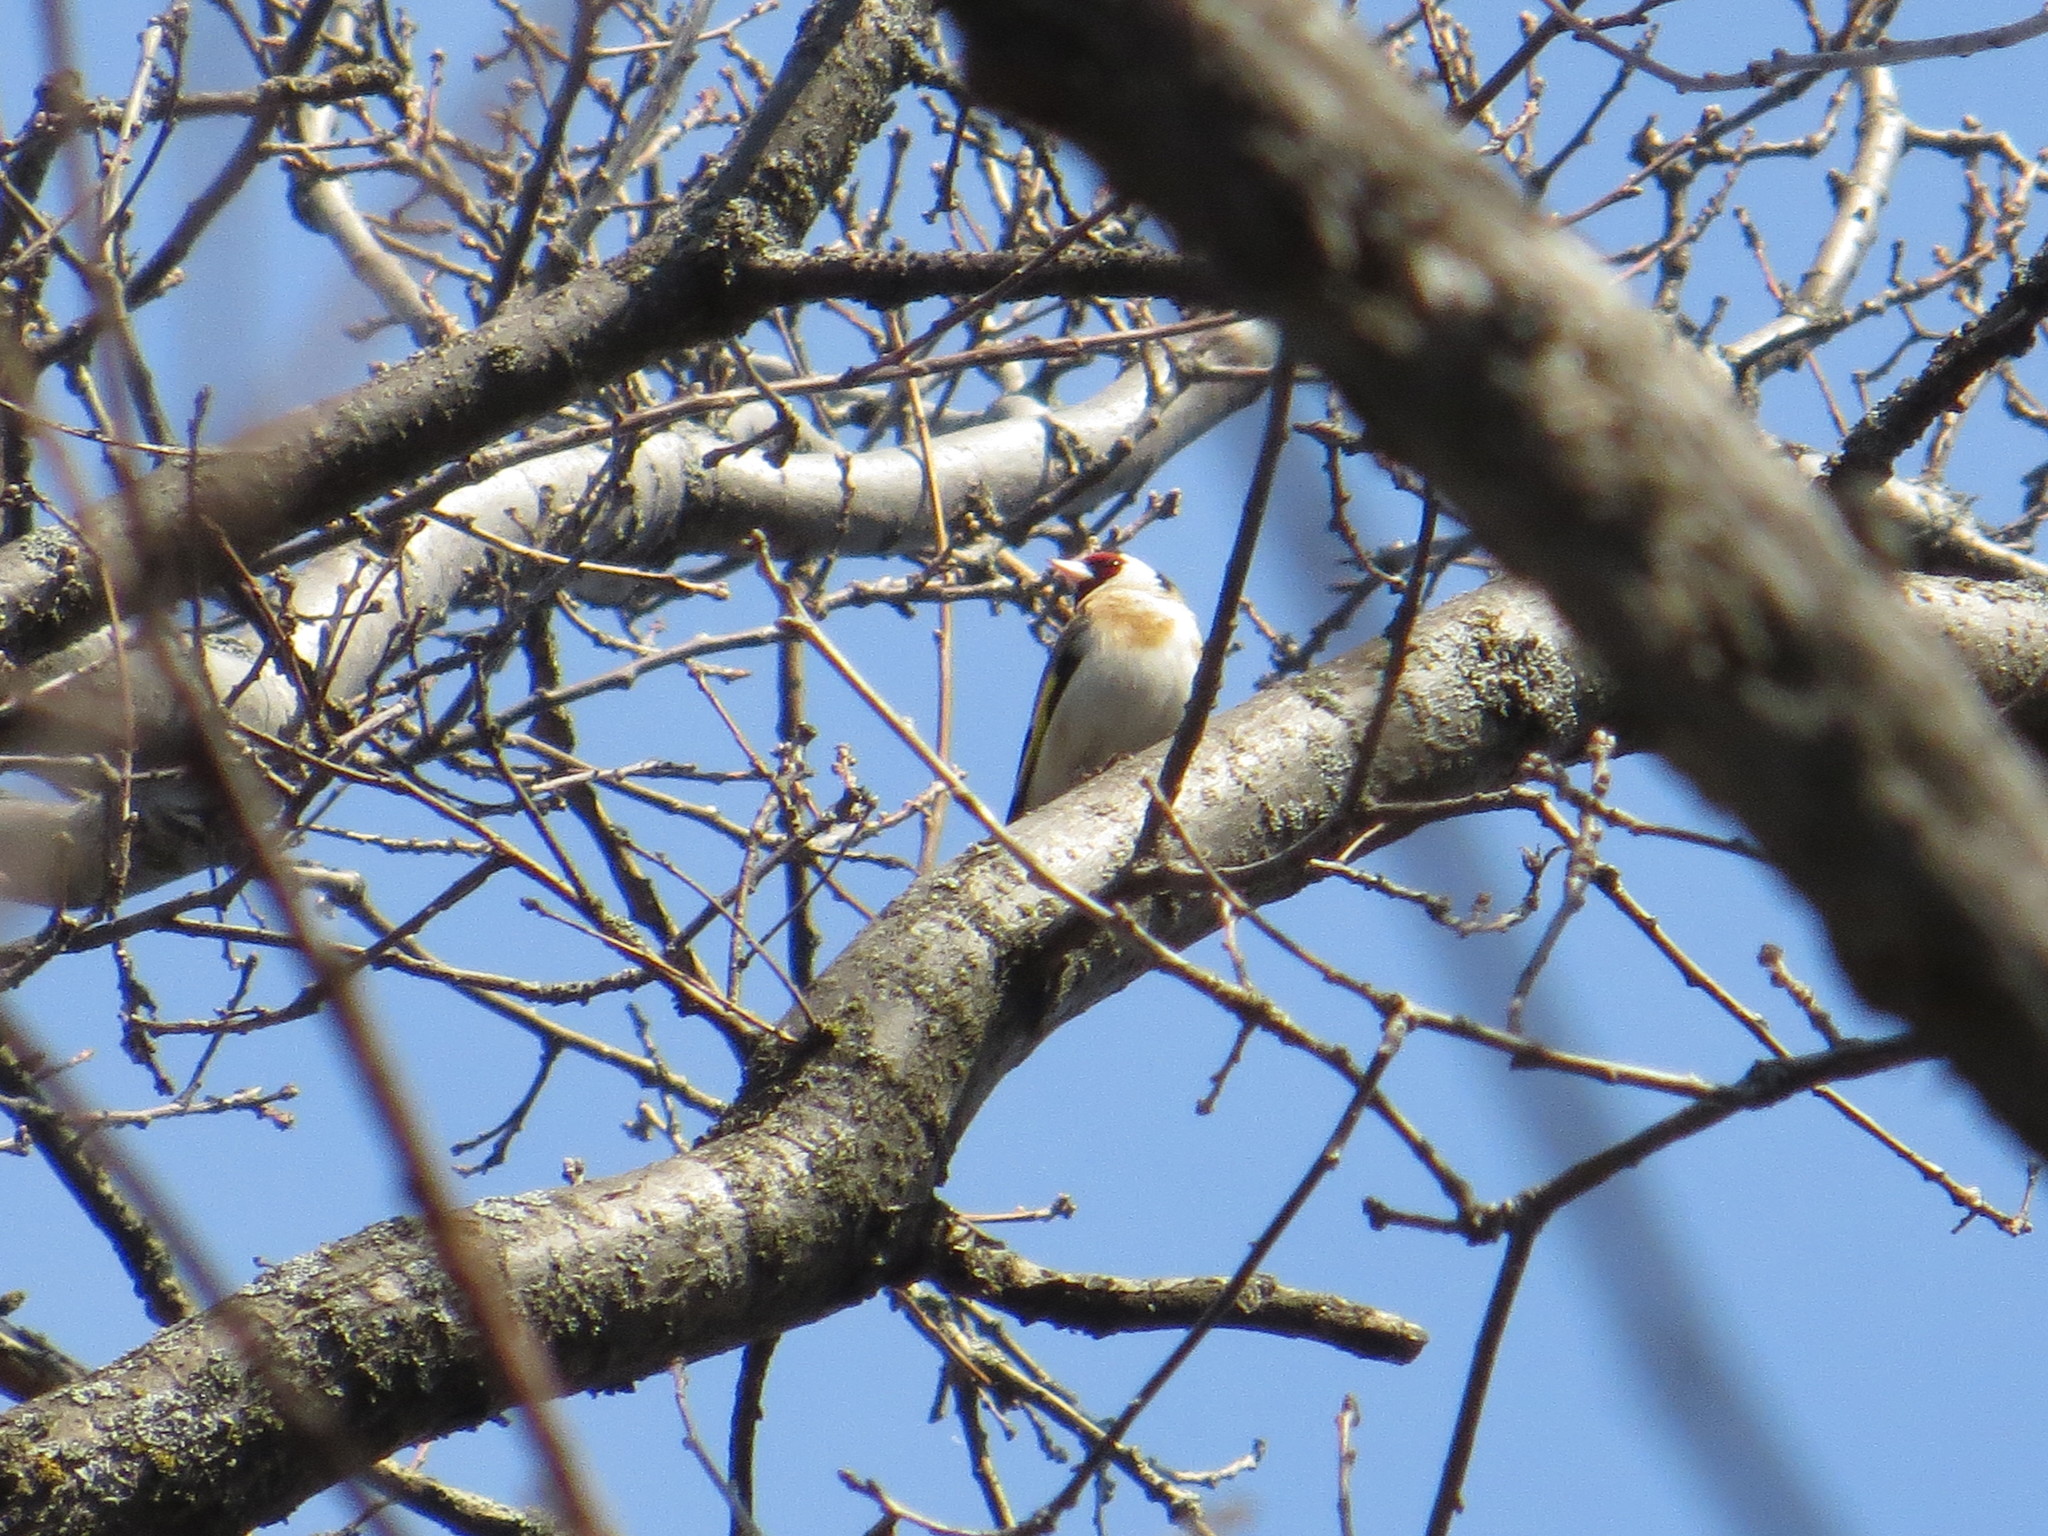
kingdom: Animalia
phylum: Chordata
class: Aves
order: Passeriformes
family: Fringillidae
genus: Carduelis
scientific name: Carduelis carduelis
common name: European goldfinch
